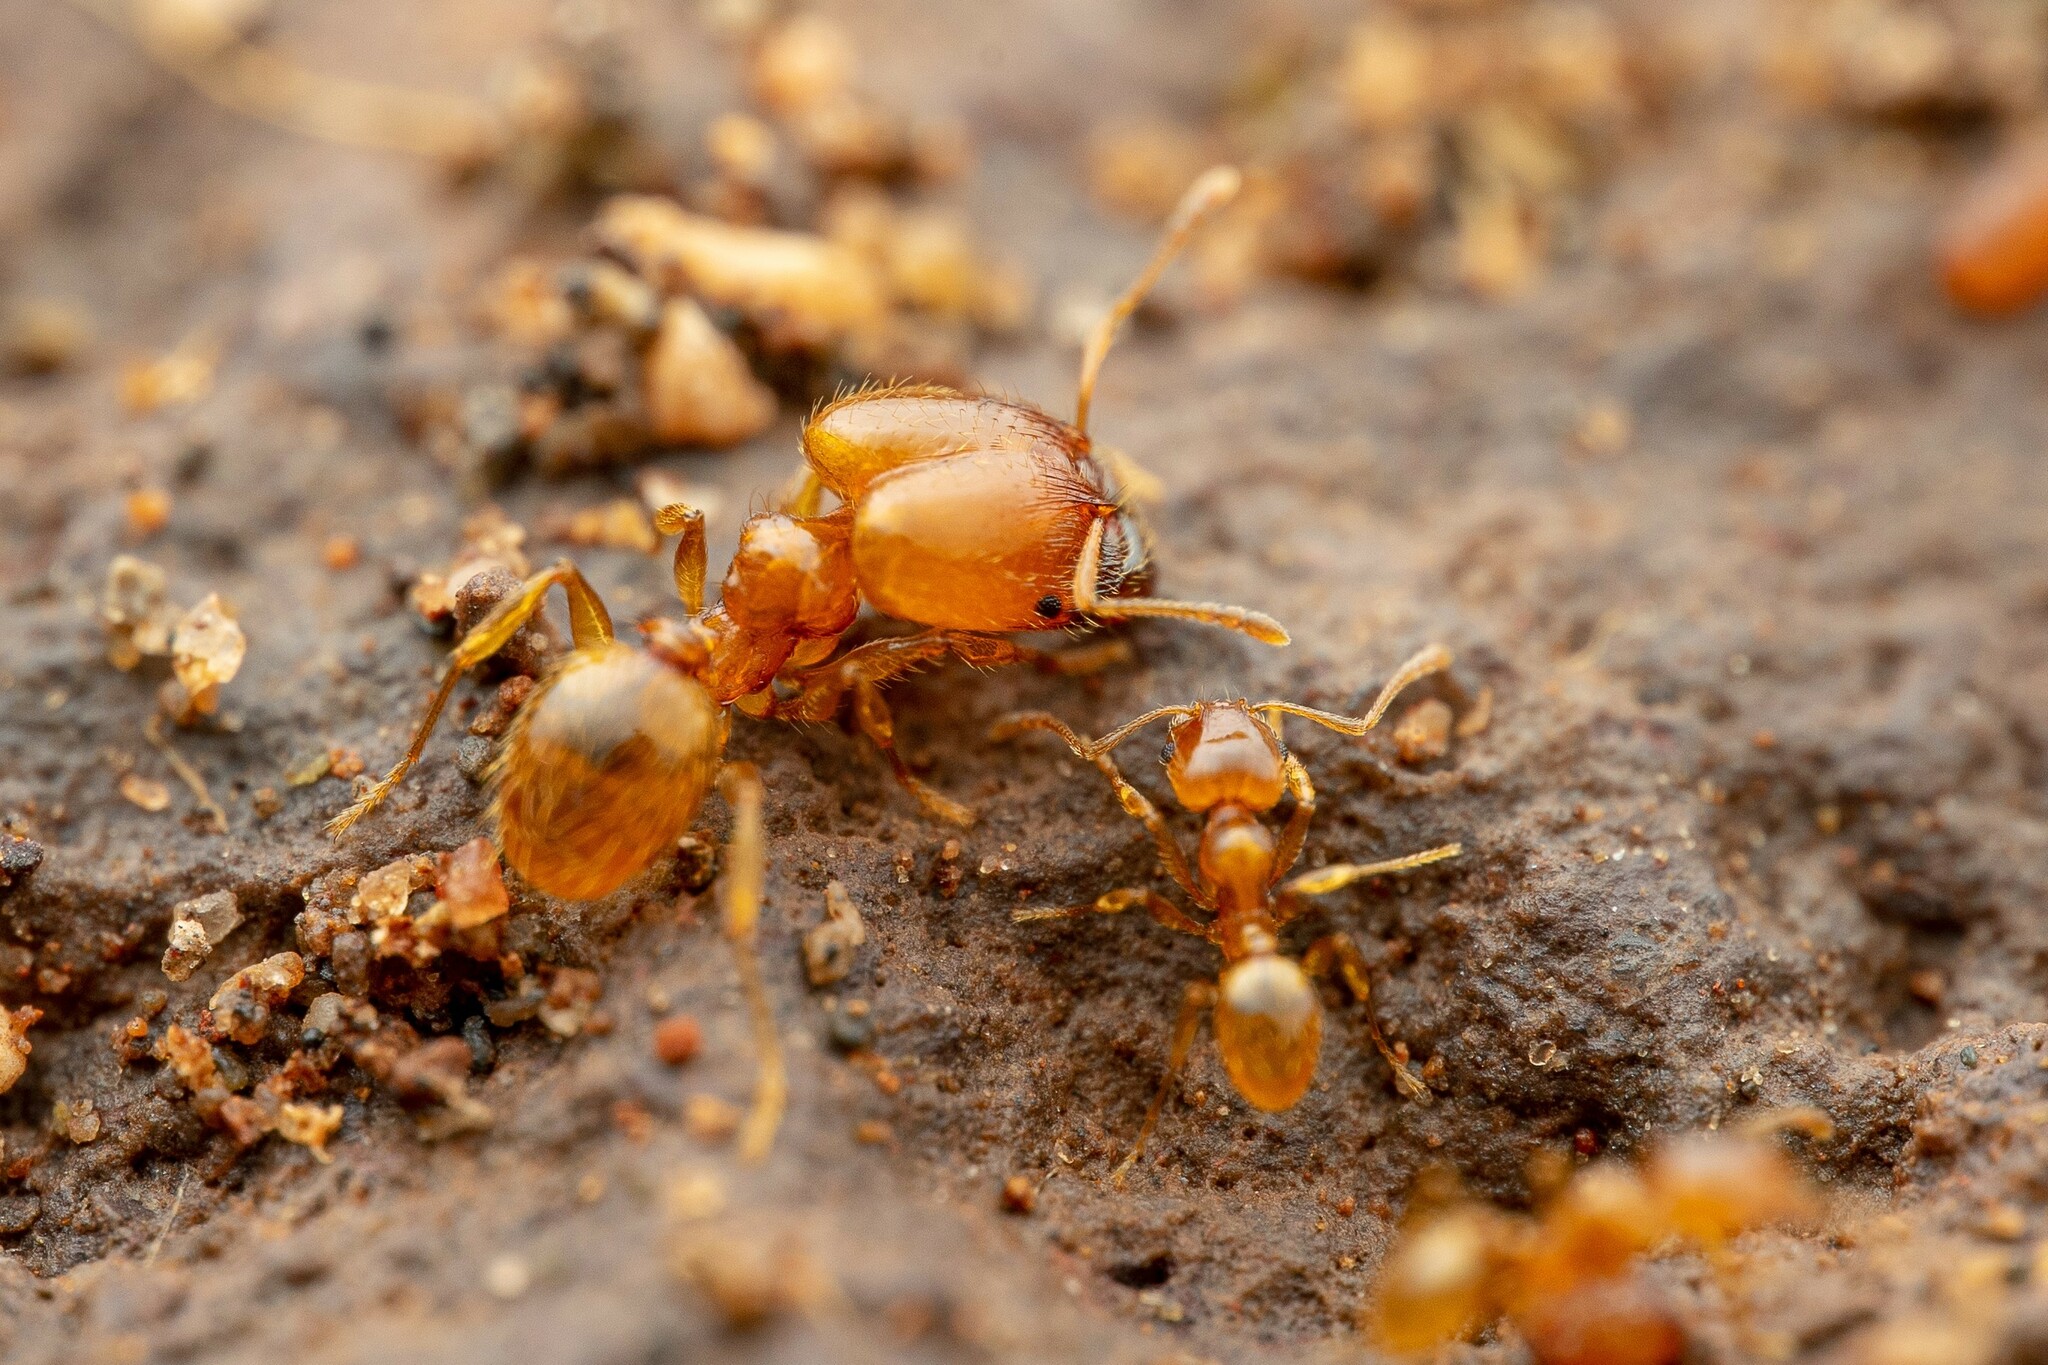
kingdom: Animalia
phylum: Arthropoda
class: Insecta
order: Hymenoptera
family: Formicidae
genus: Pheidole
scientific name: Pheidole cerebrosior
